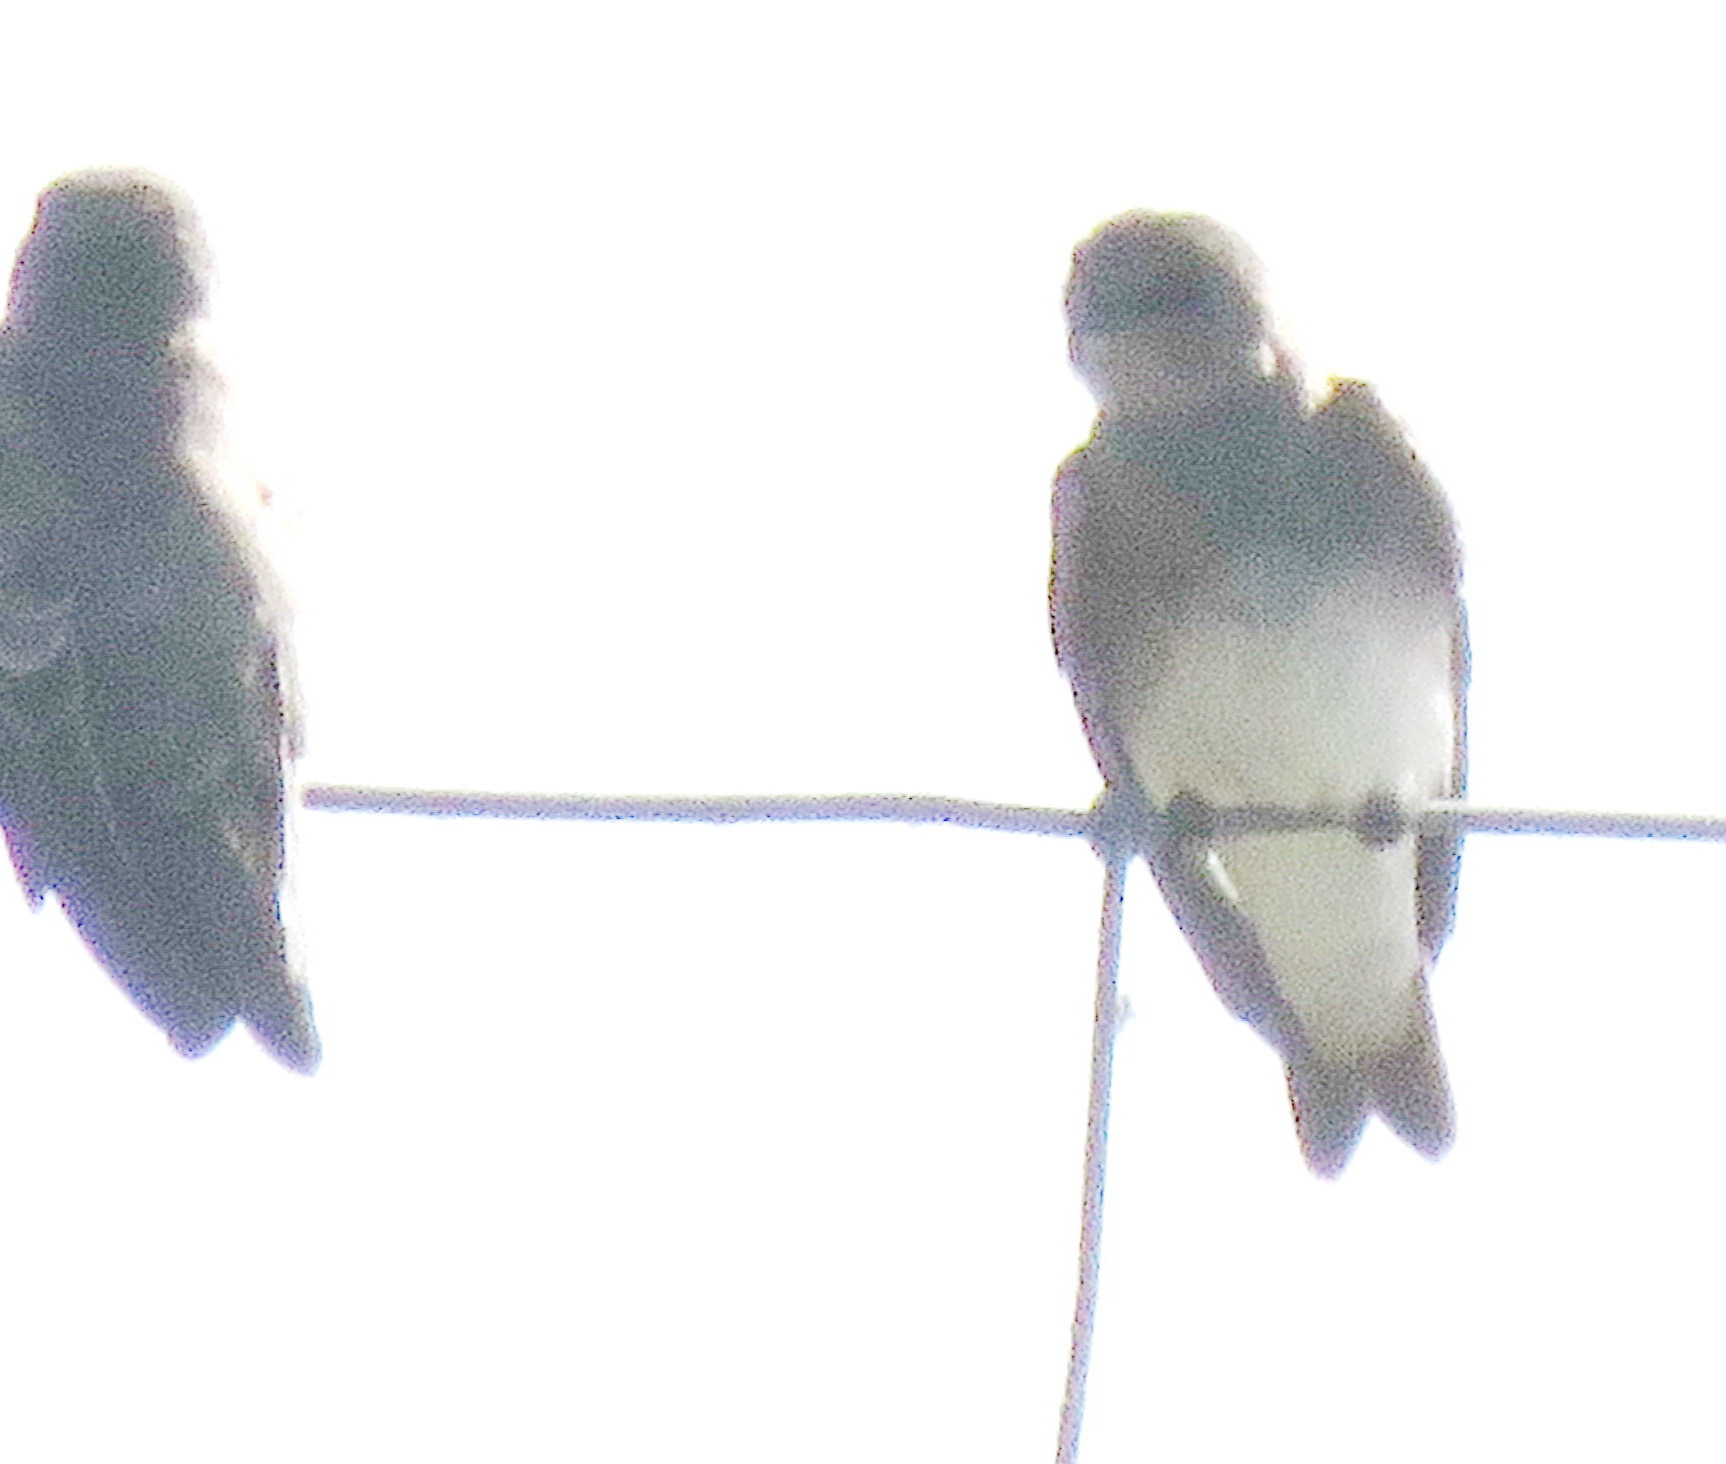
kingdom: Animalia
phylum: Chordata
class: Aves
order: Passeriformes
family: Hirundinidae
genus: Riparia
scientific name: Riparia paludicola
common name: Brown-throated martin
